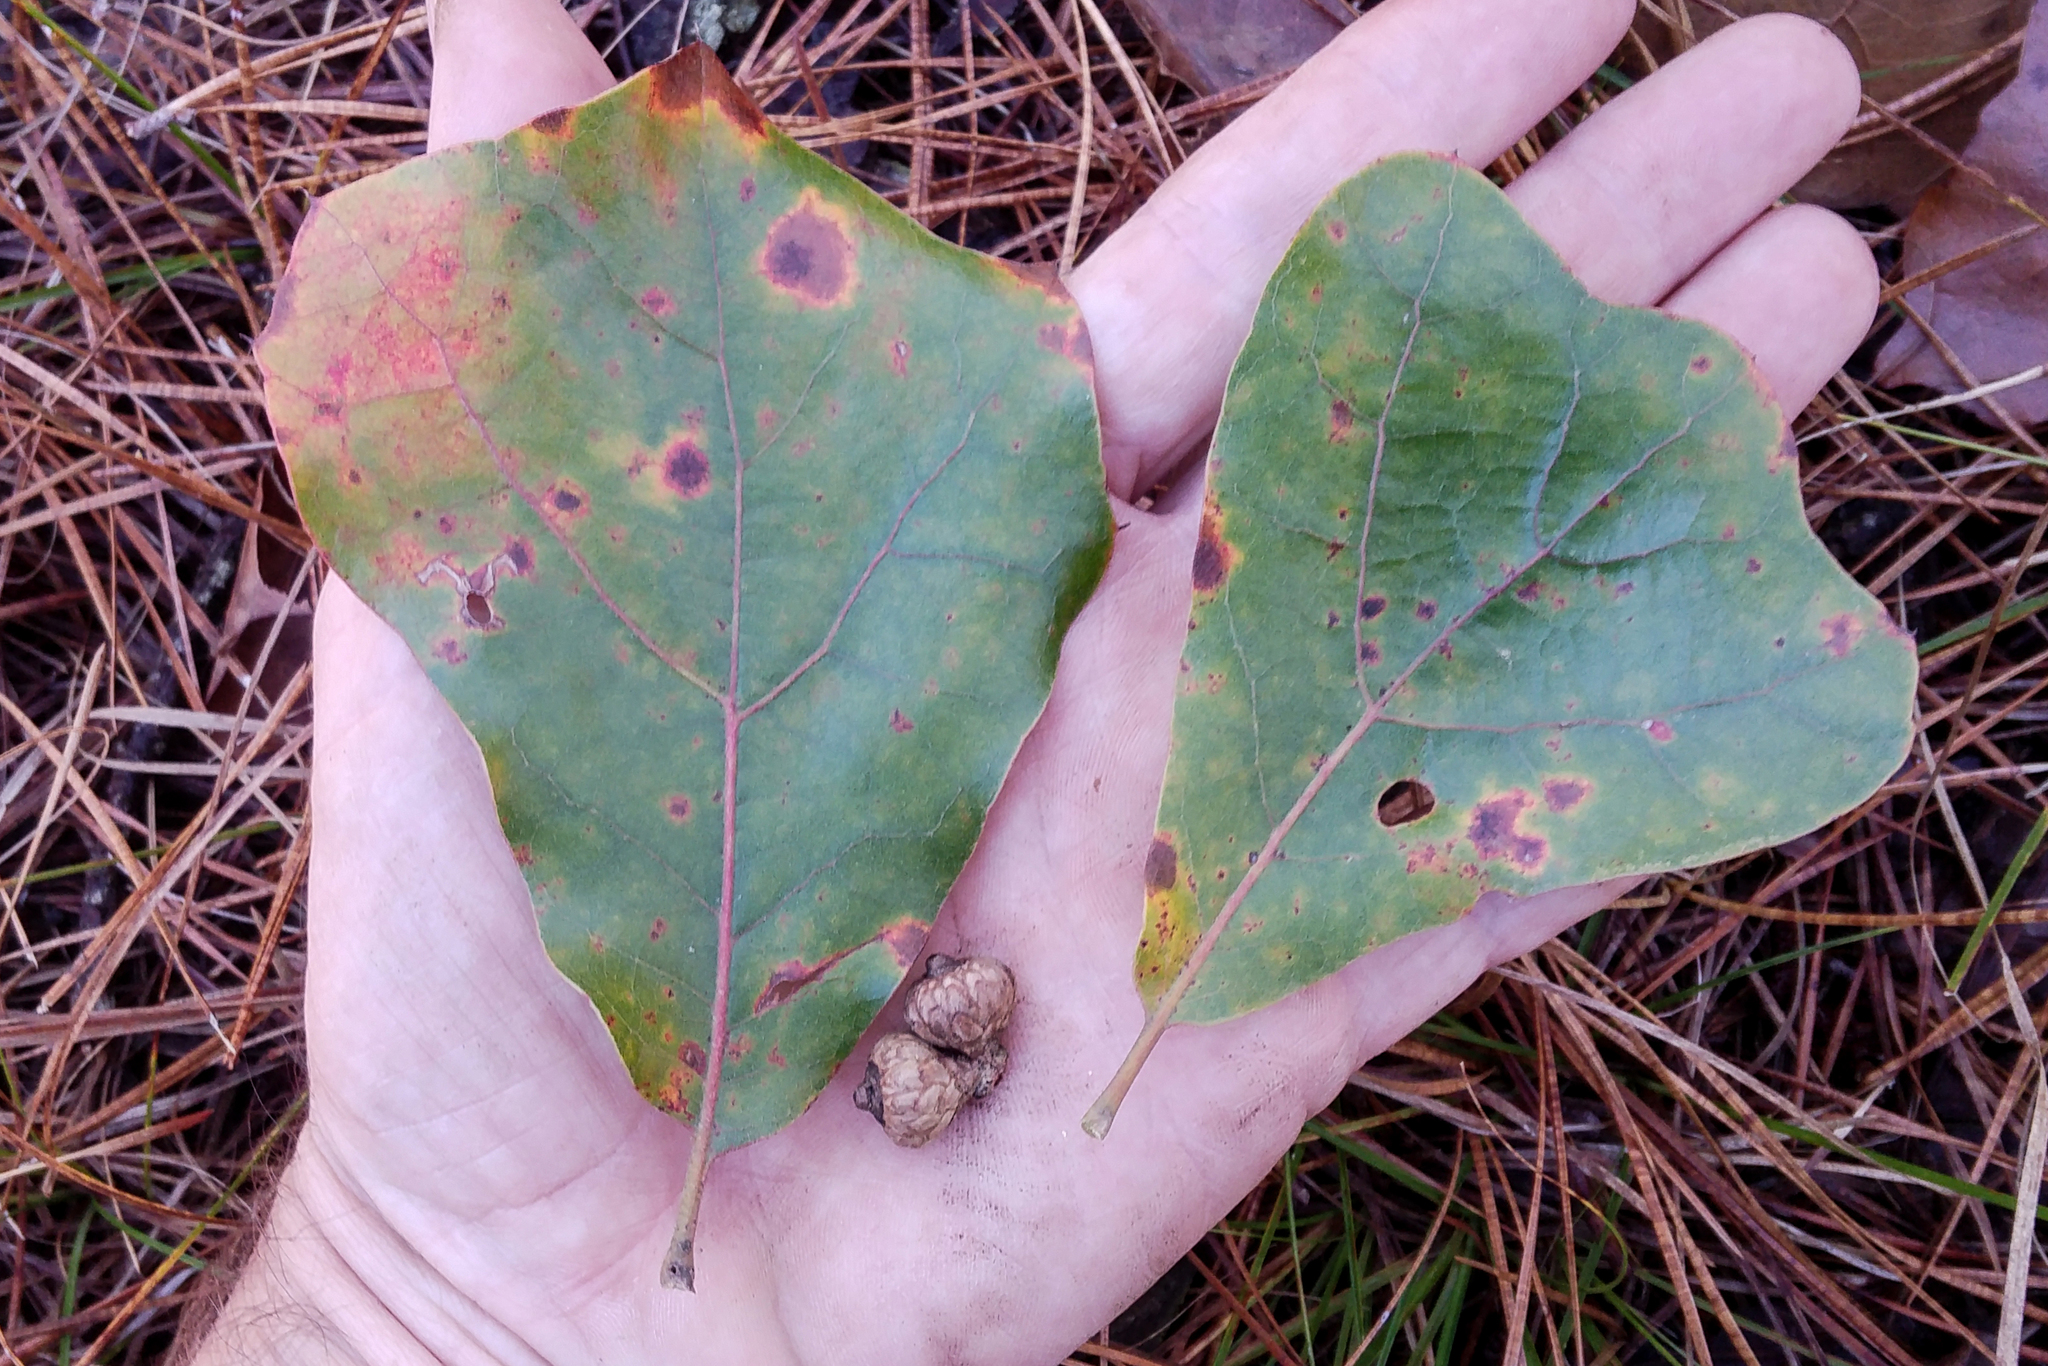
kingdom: Plantae
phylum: Tracheophyta
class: Magnoliopsida
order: Fagales
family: Fagaceae
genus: Quercus
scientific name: Quercus marilandica
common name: Blackjack oak
